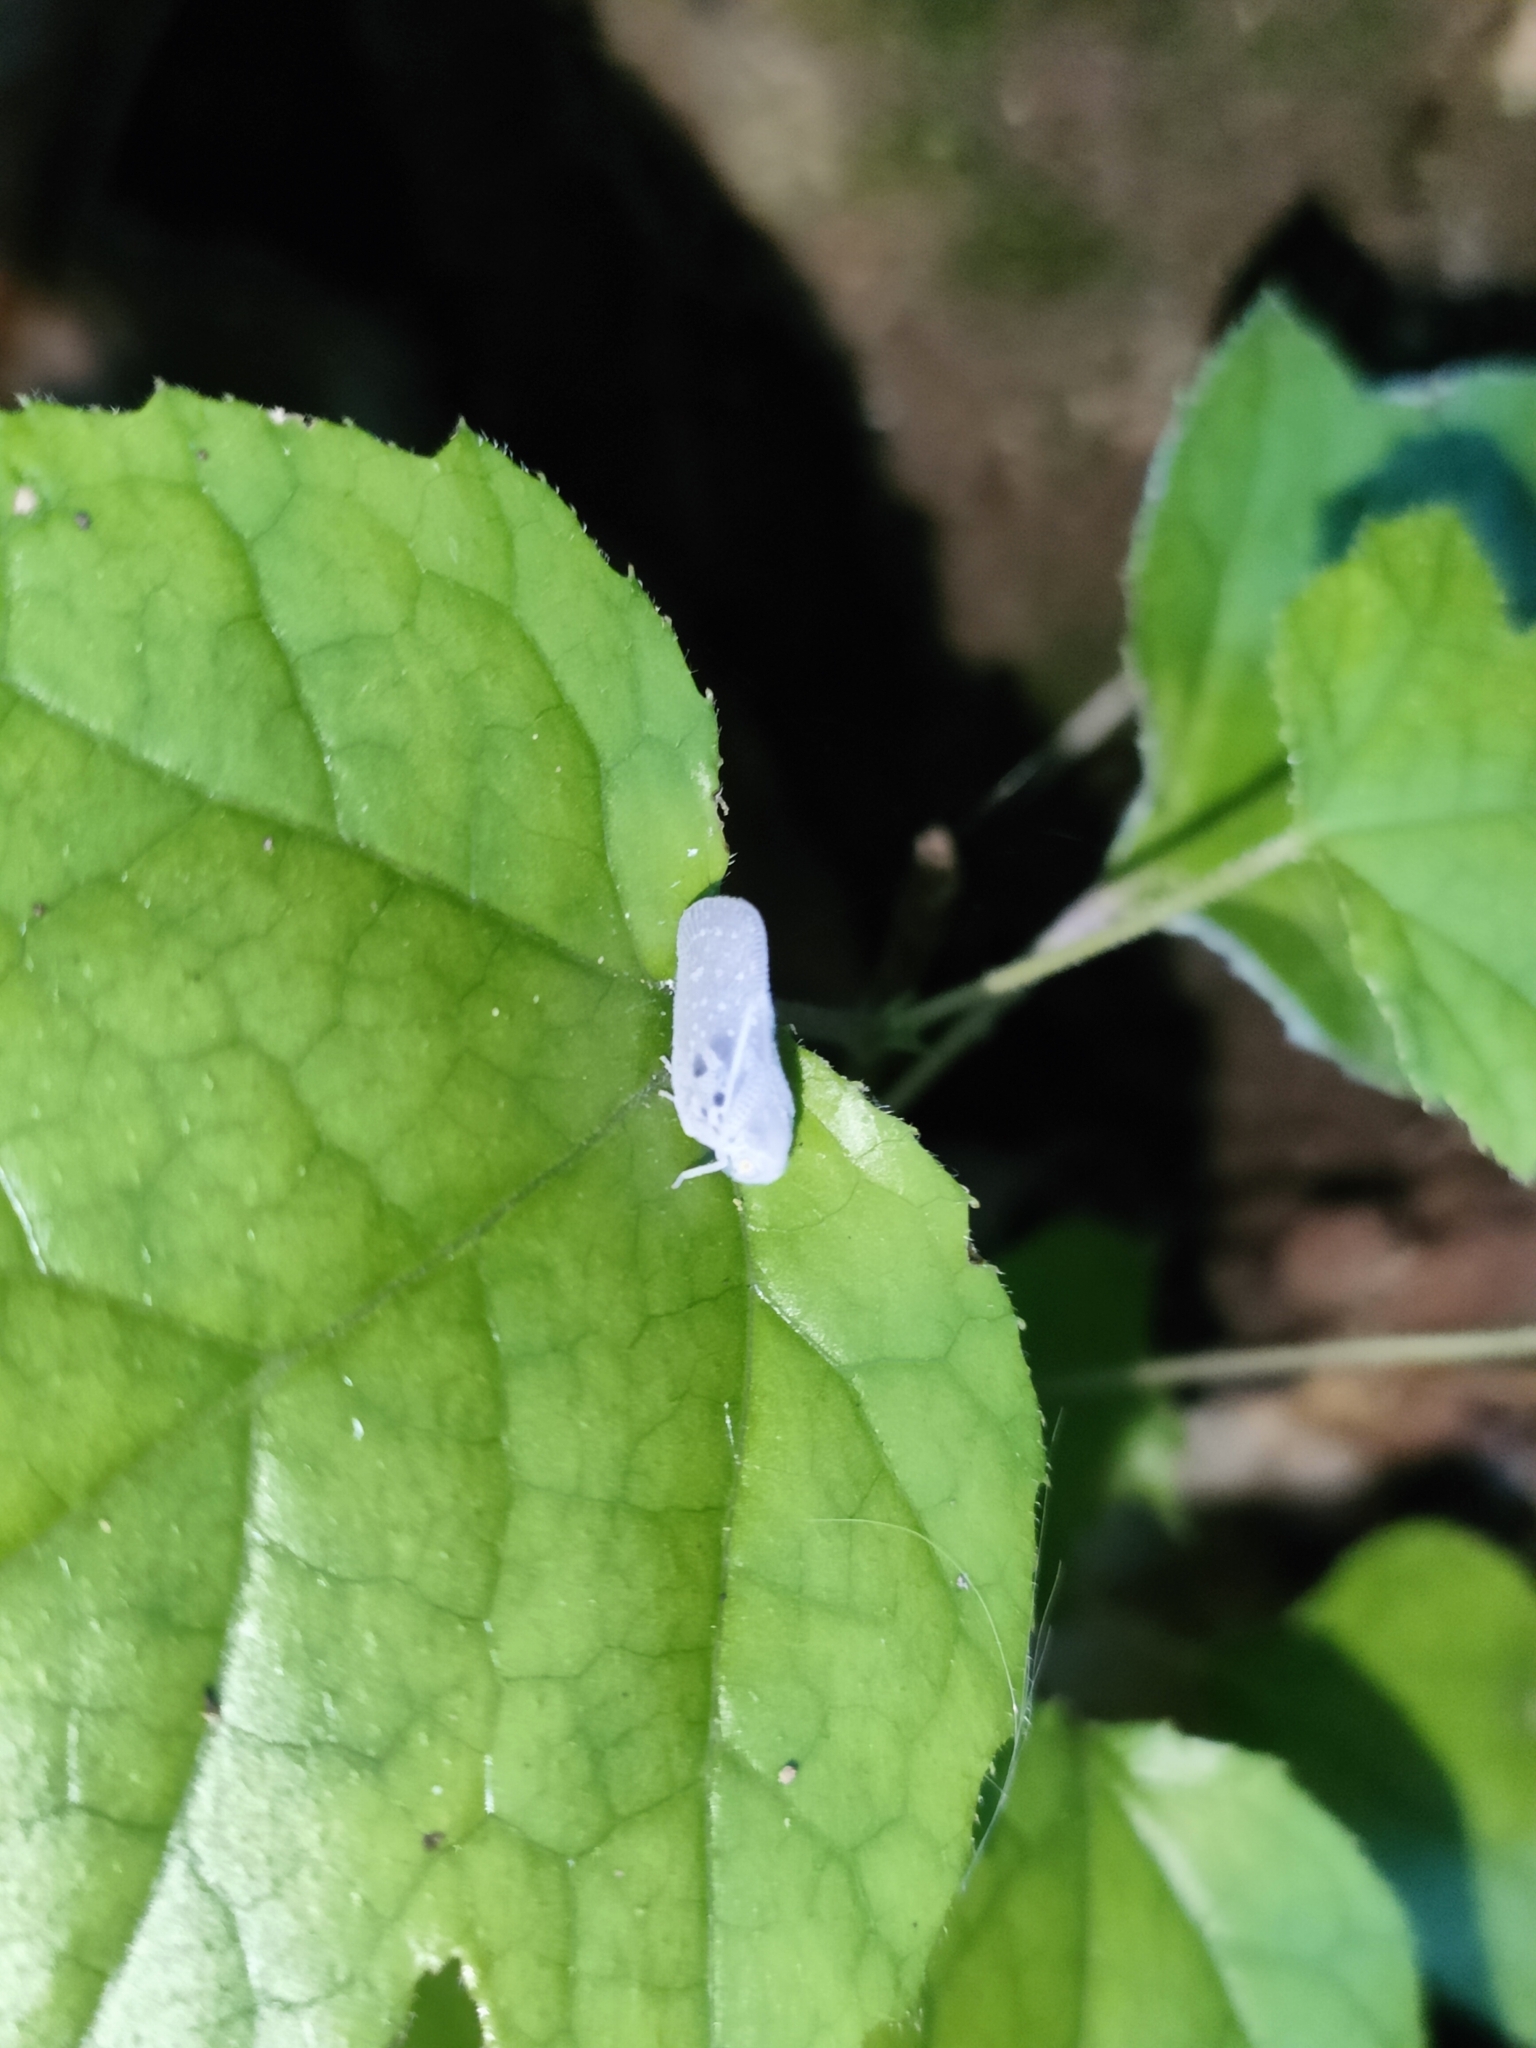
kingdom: Animalia
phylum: Arthropoda
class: Insecta
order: Hemiptera
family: Flatidae
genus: Metcalfa
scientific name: Metcalfa pruinosa
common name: Citrus flatid planthopper
